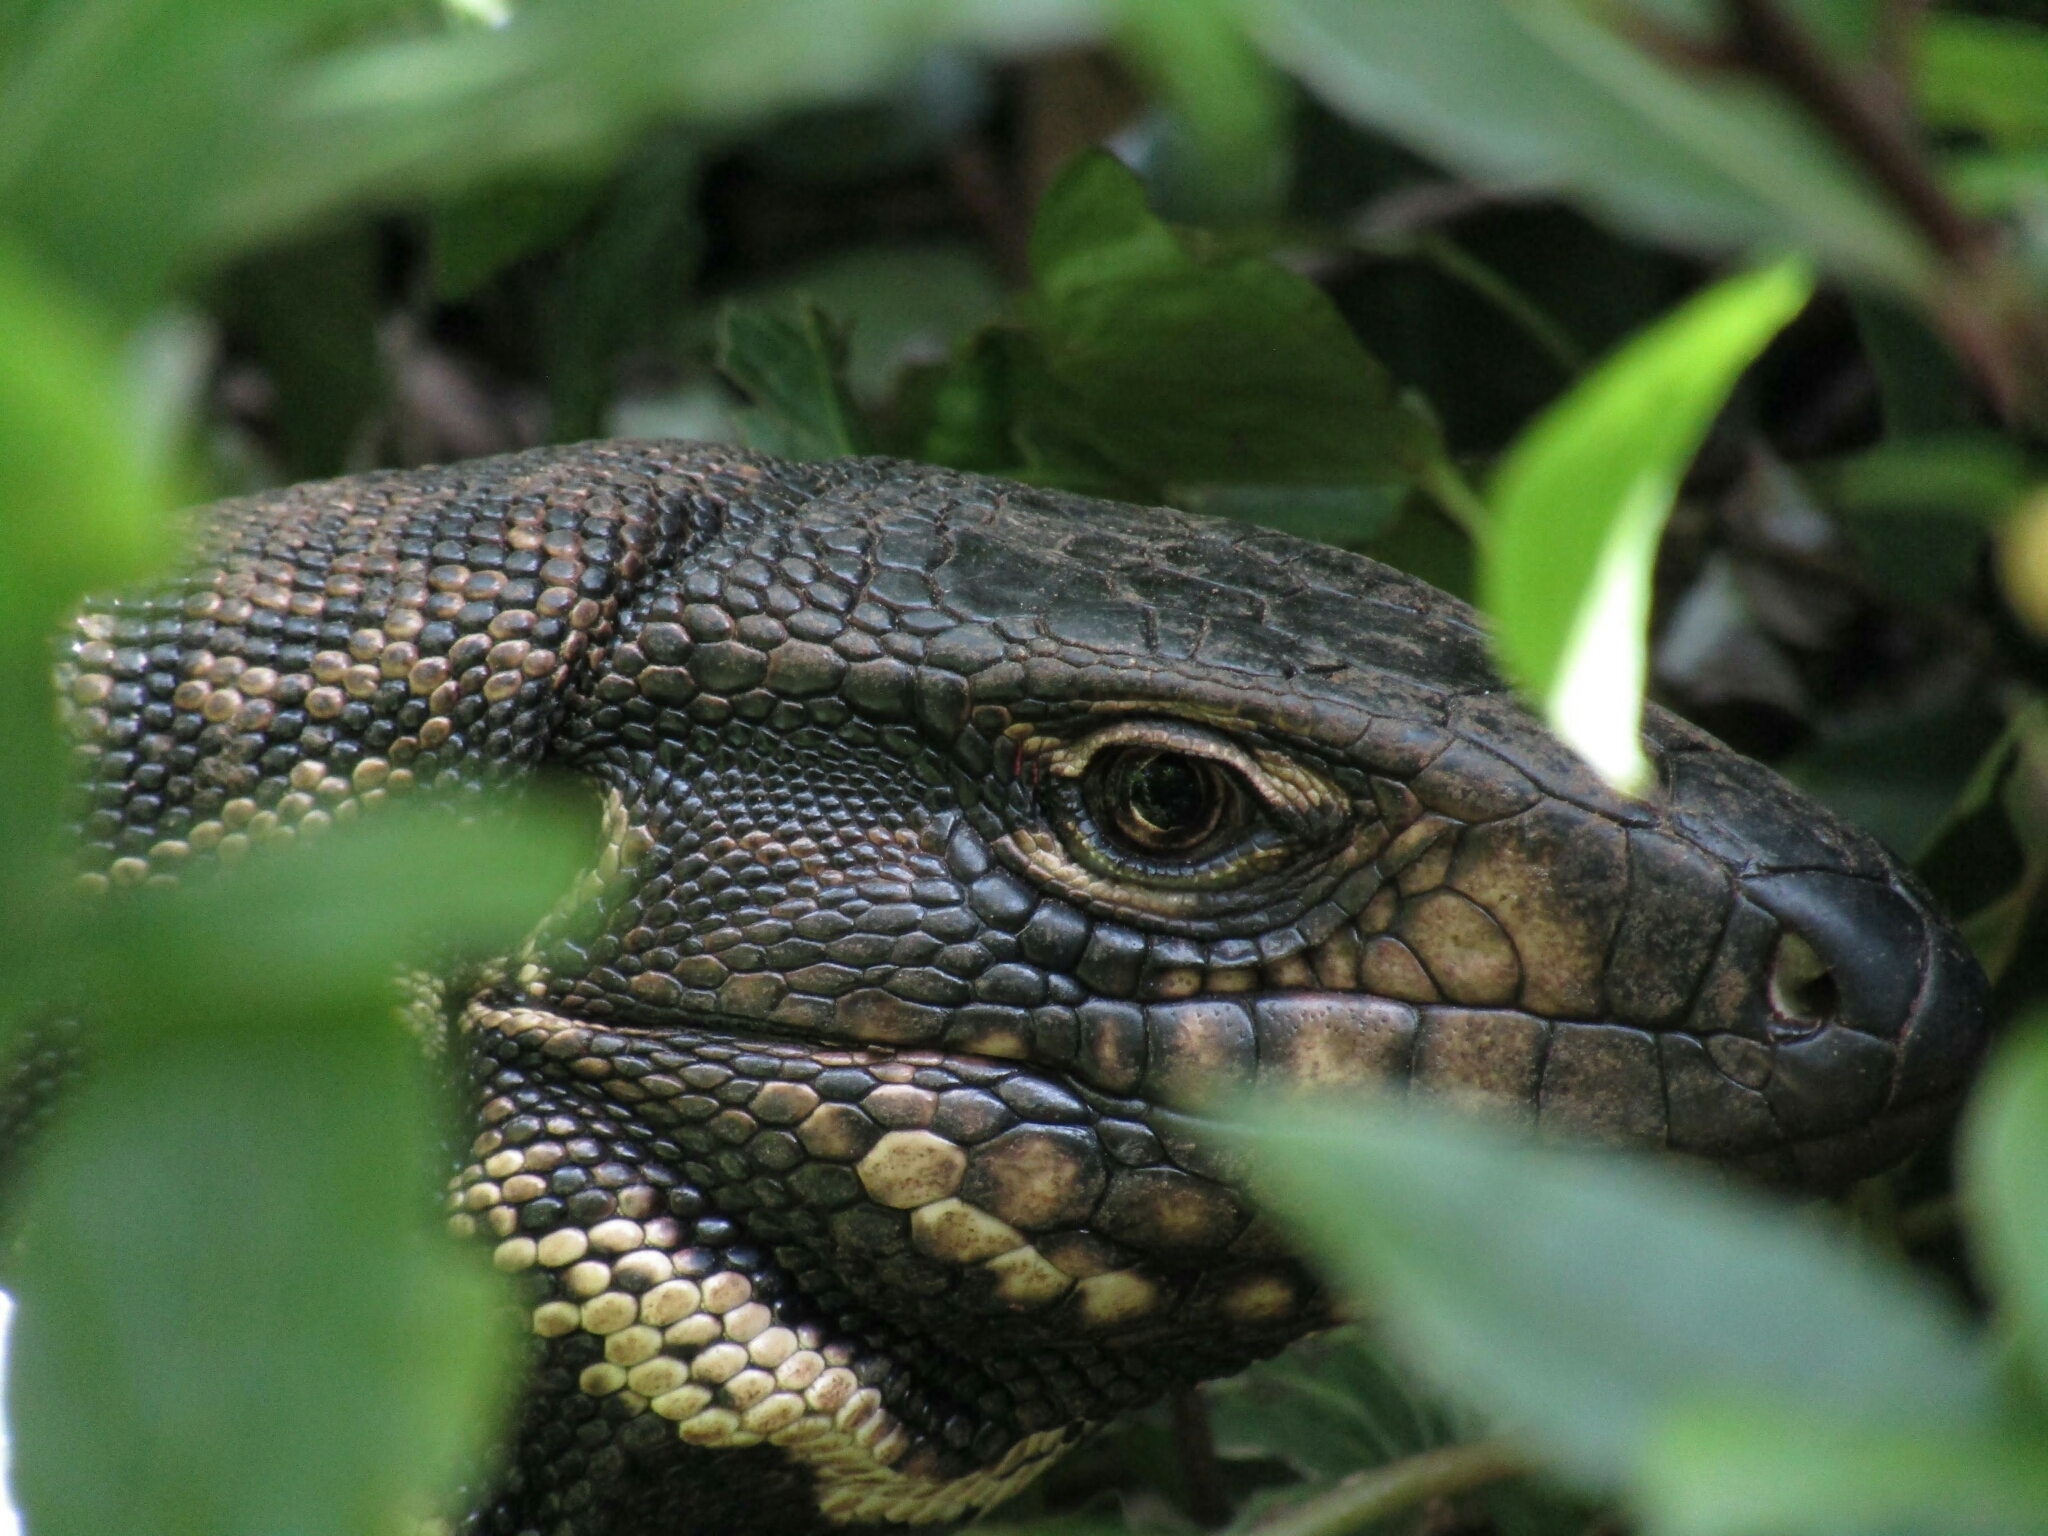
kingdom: Animalia
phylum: Chordata
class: Squamata
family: Teiidae
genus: Salvator
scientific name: Salvator merianae
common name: Argentine black and white tegu
